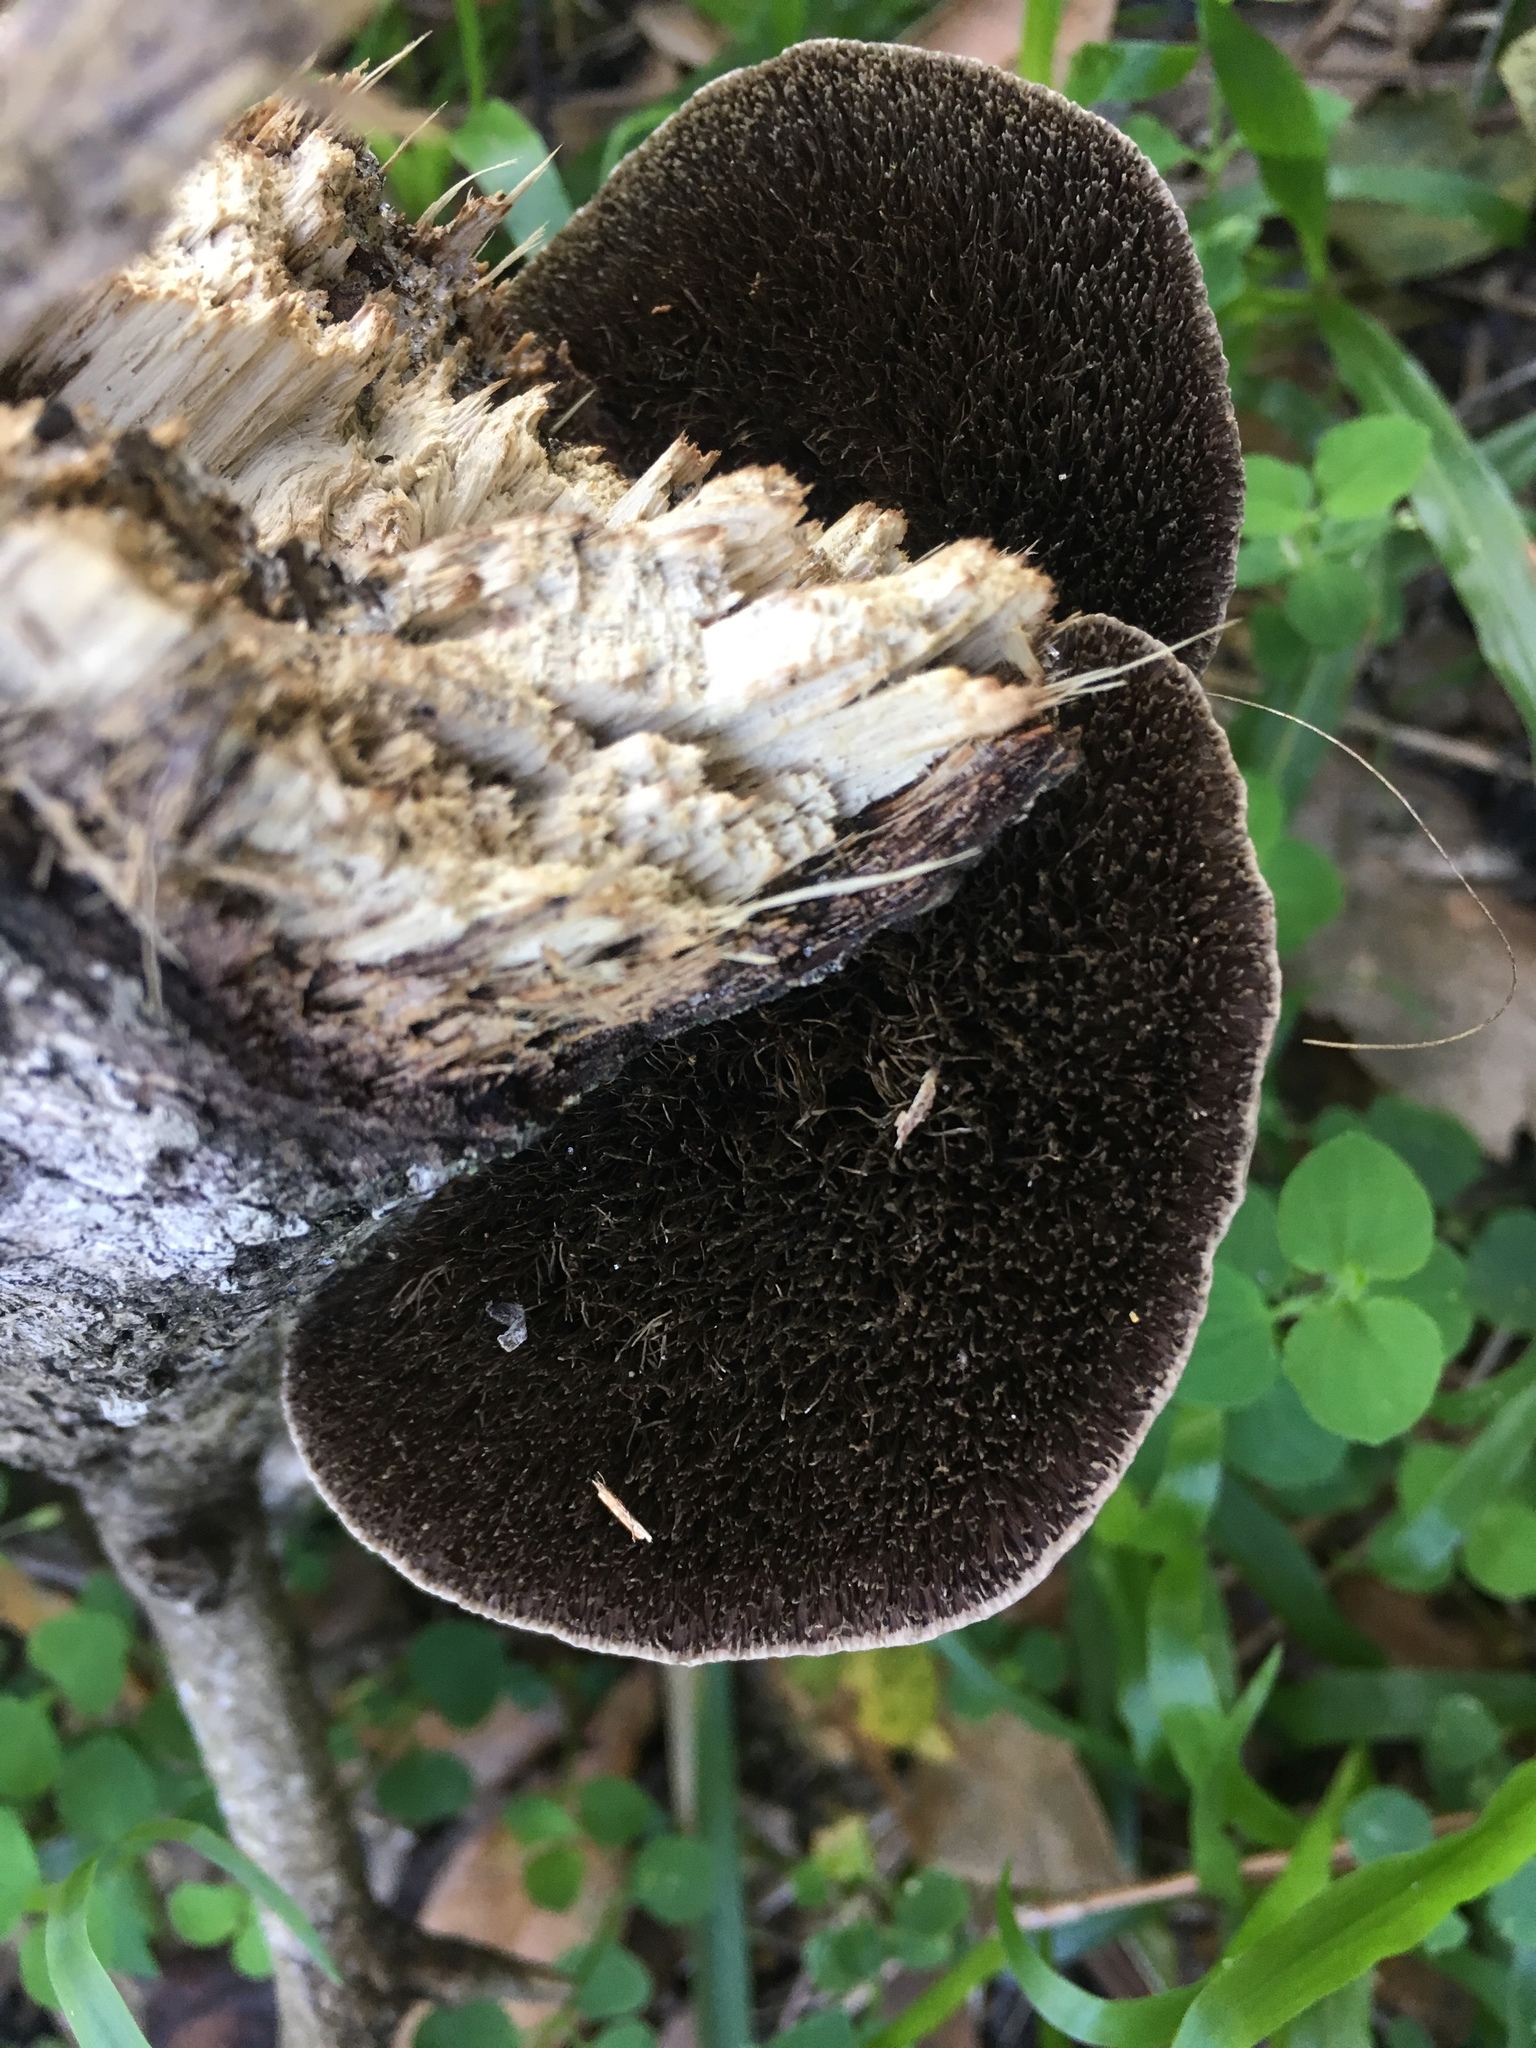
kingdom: Fungi
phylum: Basidiomycota
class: Agaricomycetes
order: Polyporales
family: Cerrenaceae
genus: Cerrena
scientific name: Cerrena hydnoides
